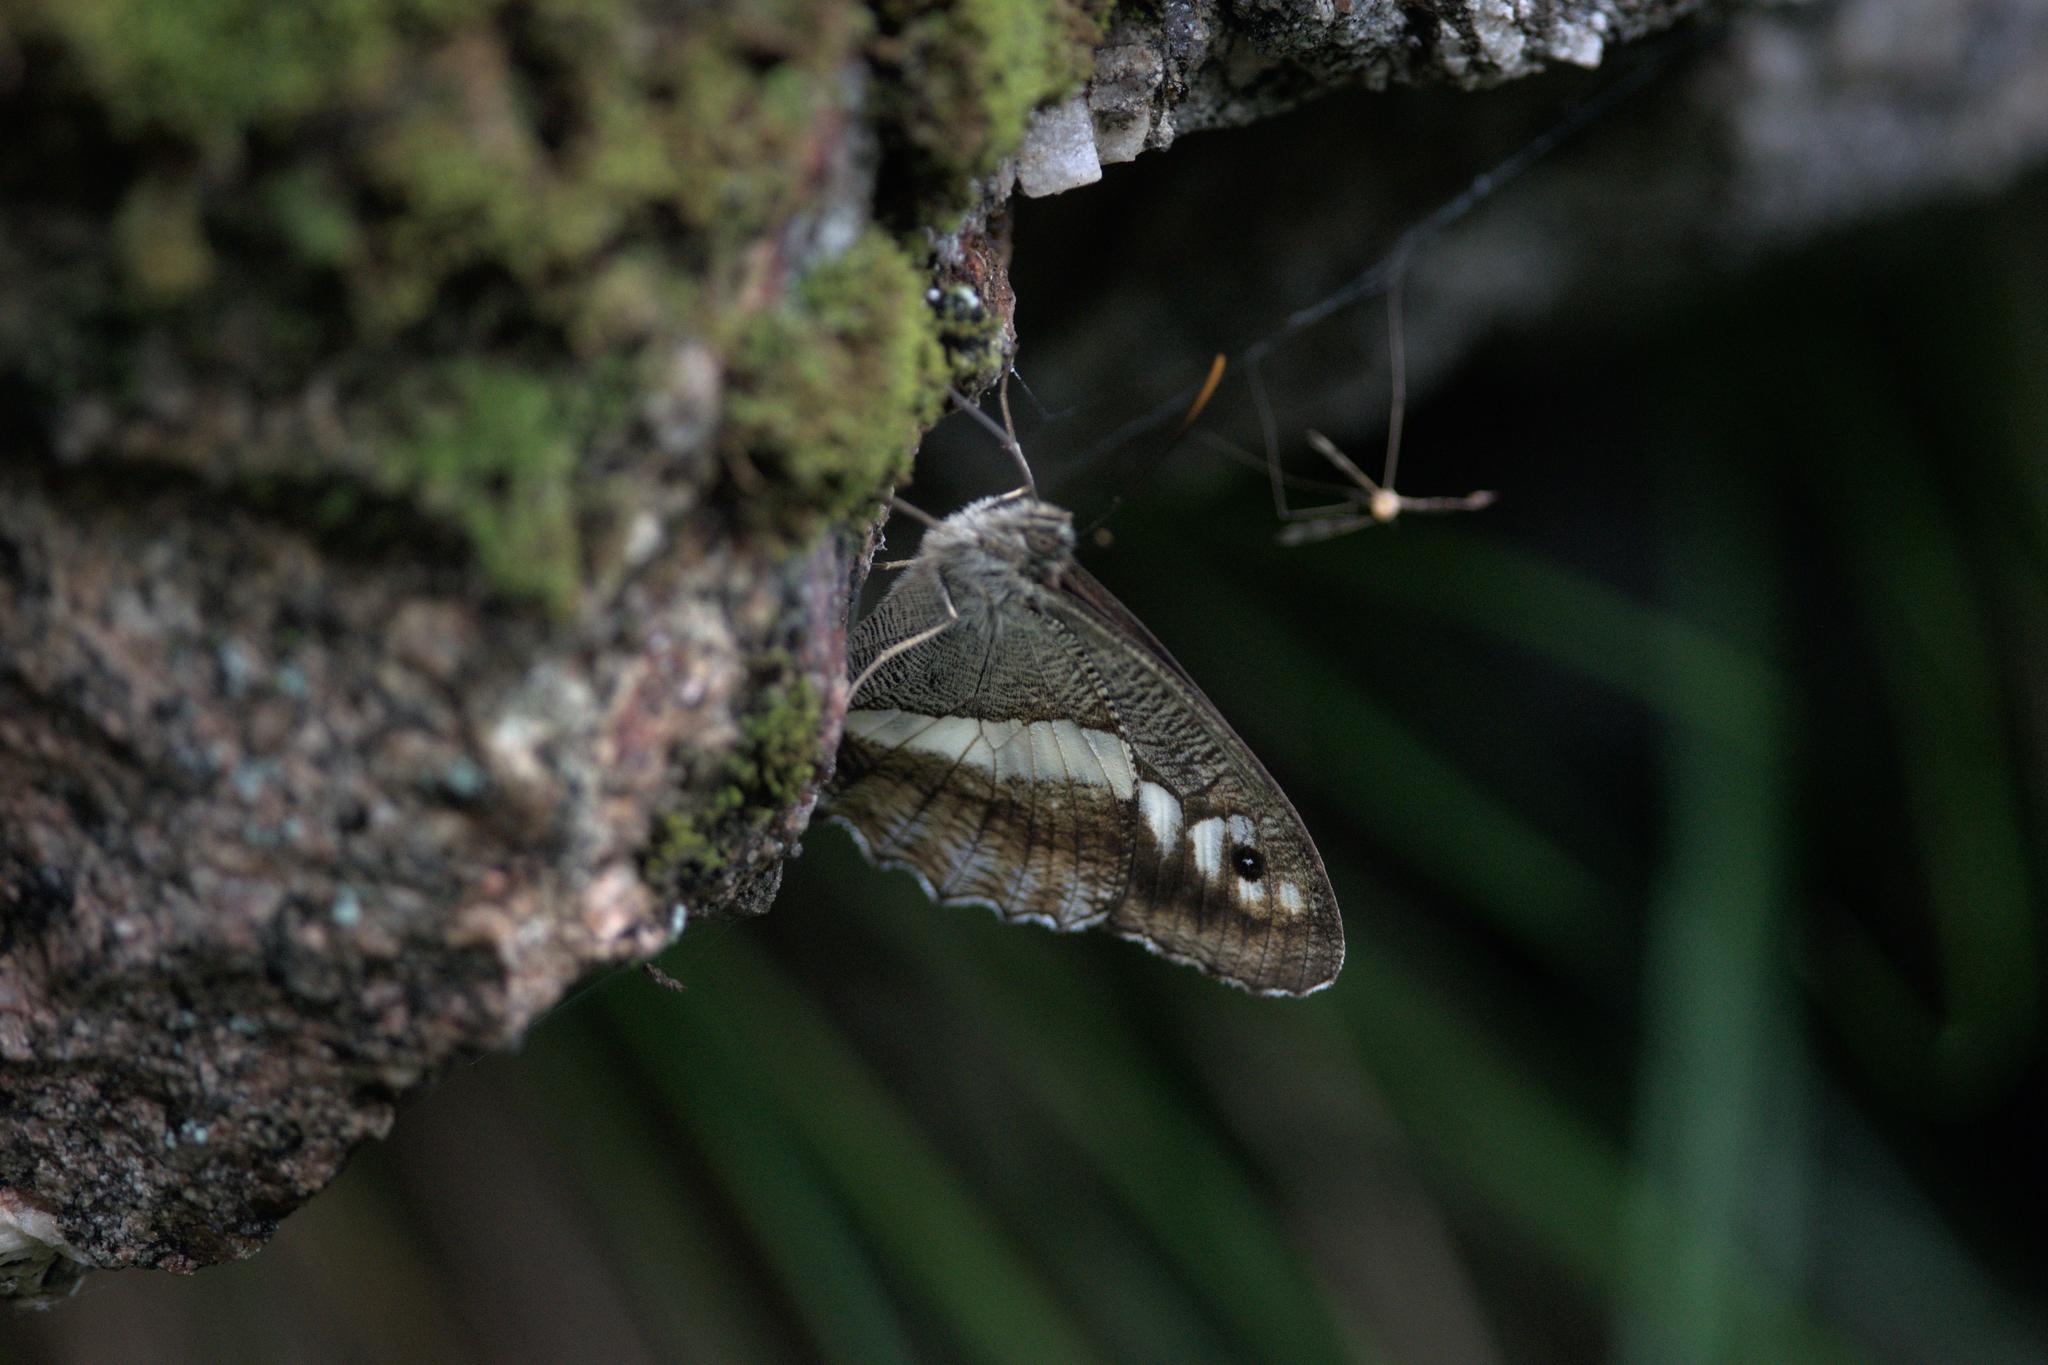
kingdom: Animalia
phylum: Arthropoda
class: Insecta
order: Lepidoptera
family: Nymphalidae
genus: Satyrus
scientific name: Satyrus
